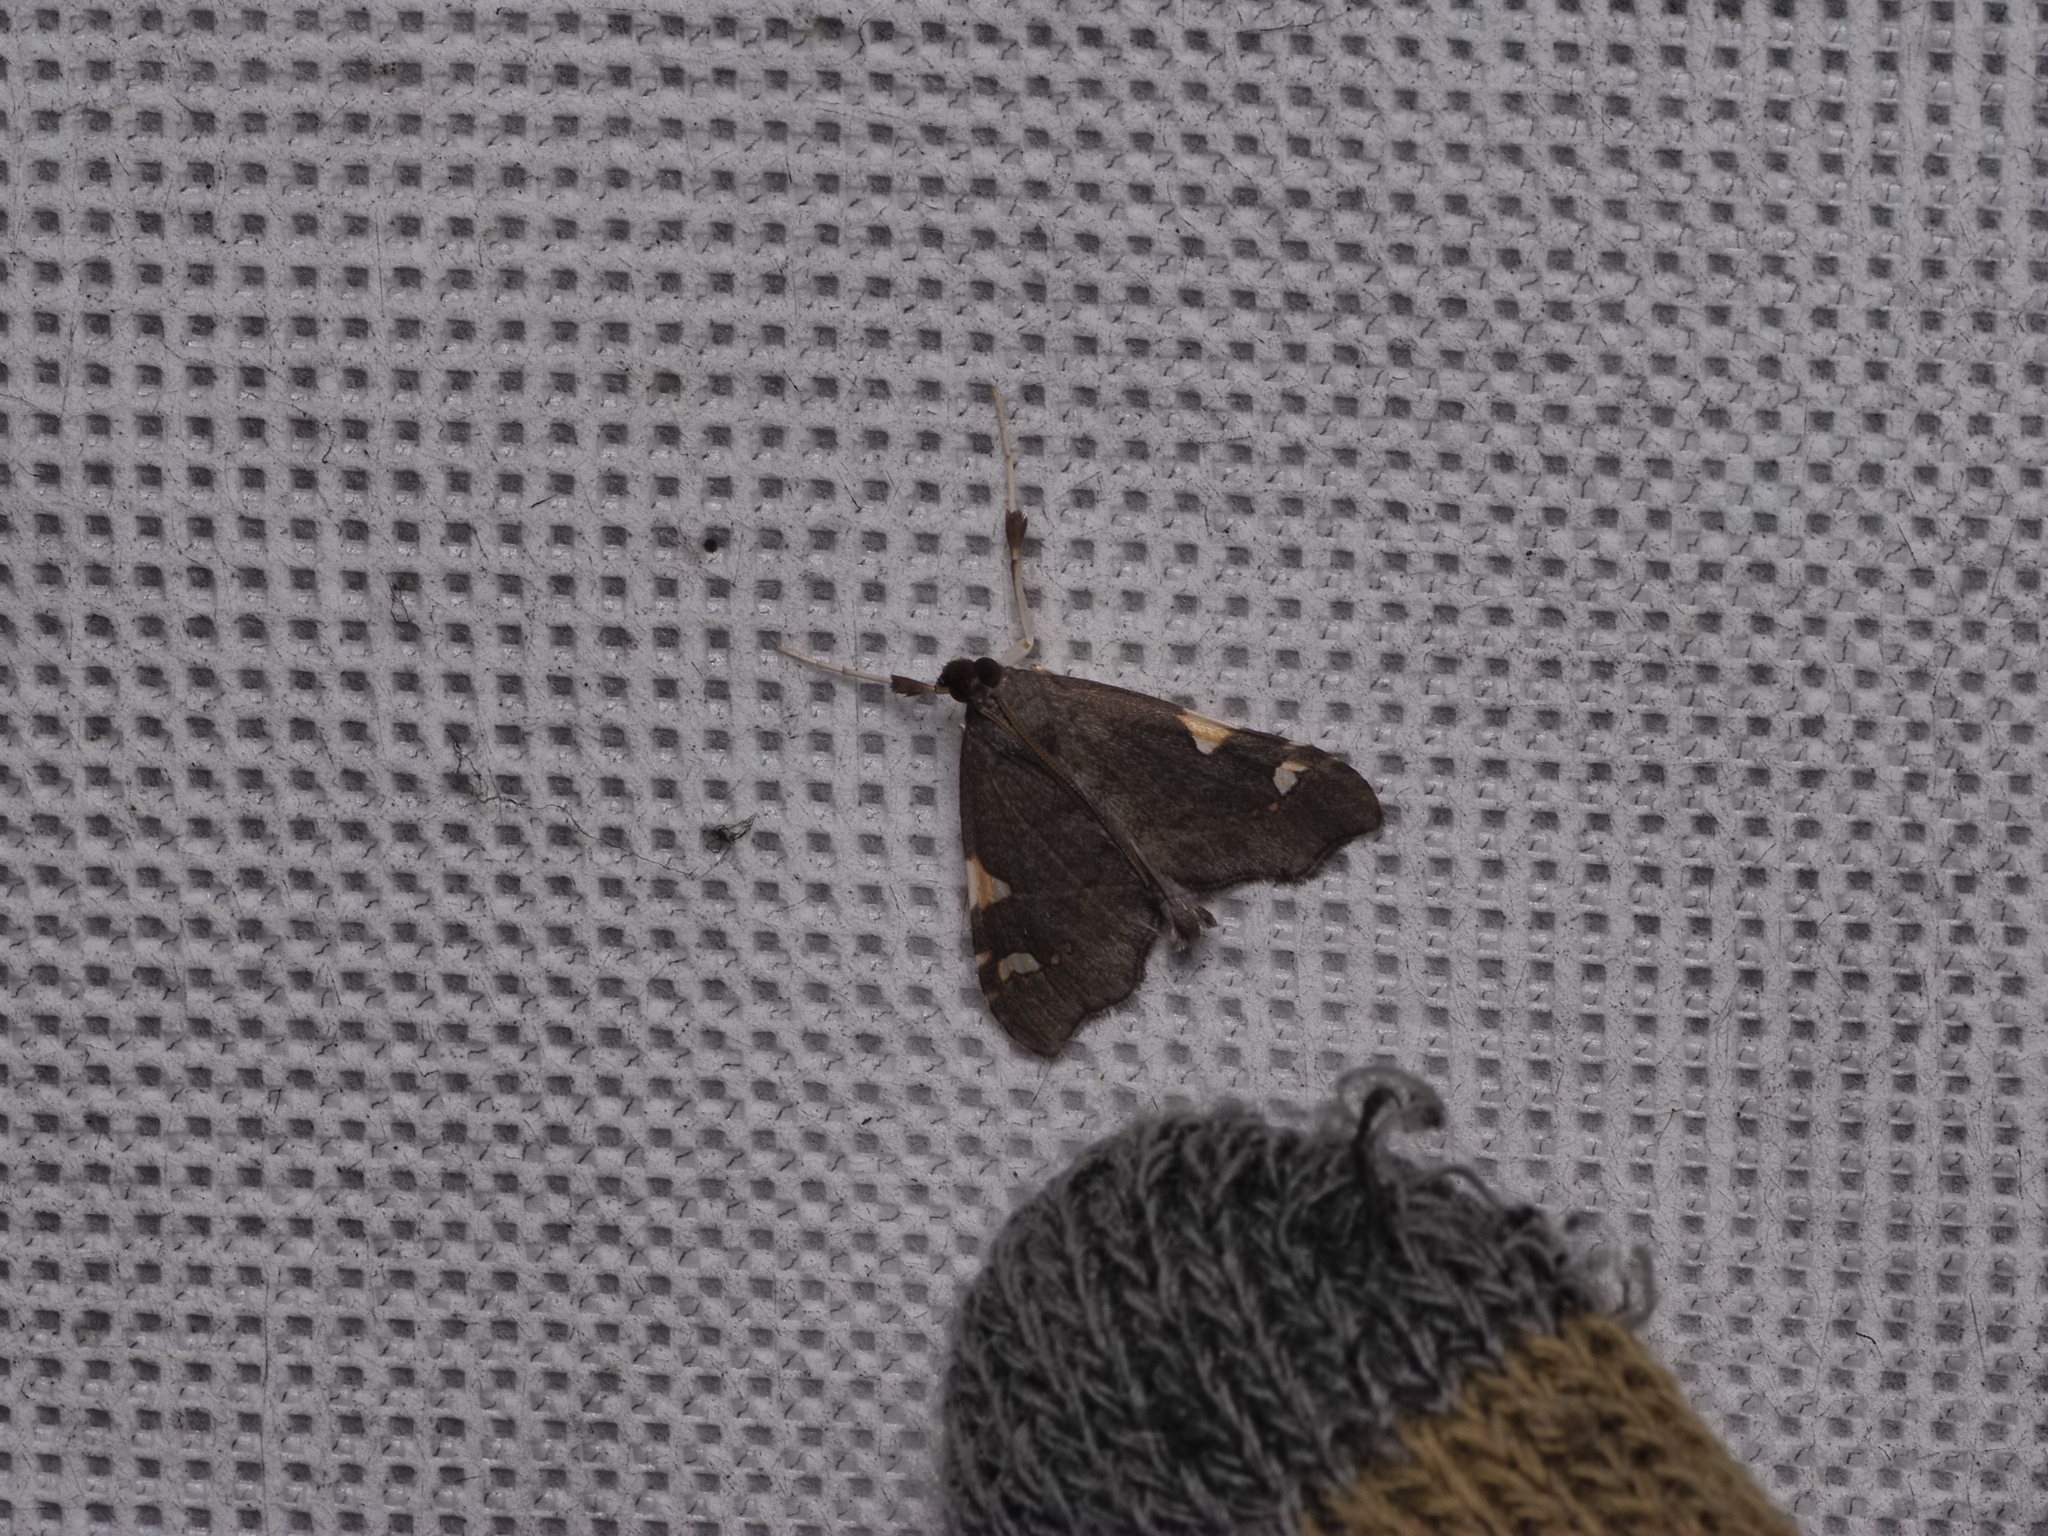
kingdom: Animalia
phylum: Arthropoda
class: Insecta
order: Lepidoptera
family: Crambidae
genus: Deana
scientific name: Deana hybreasalis
